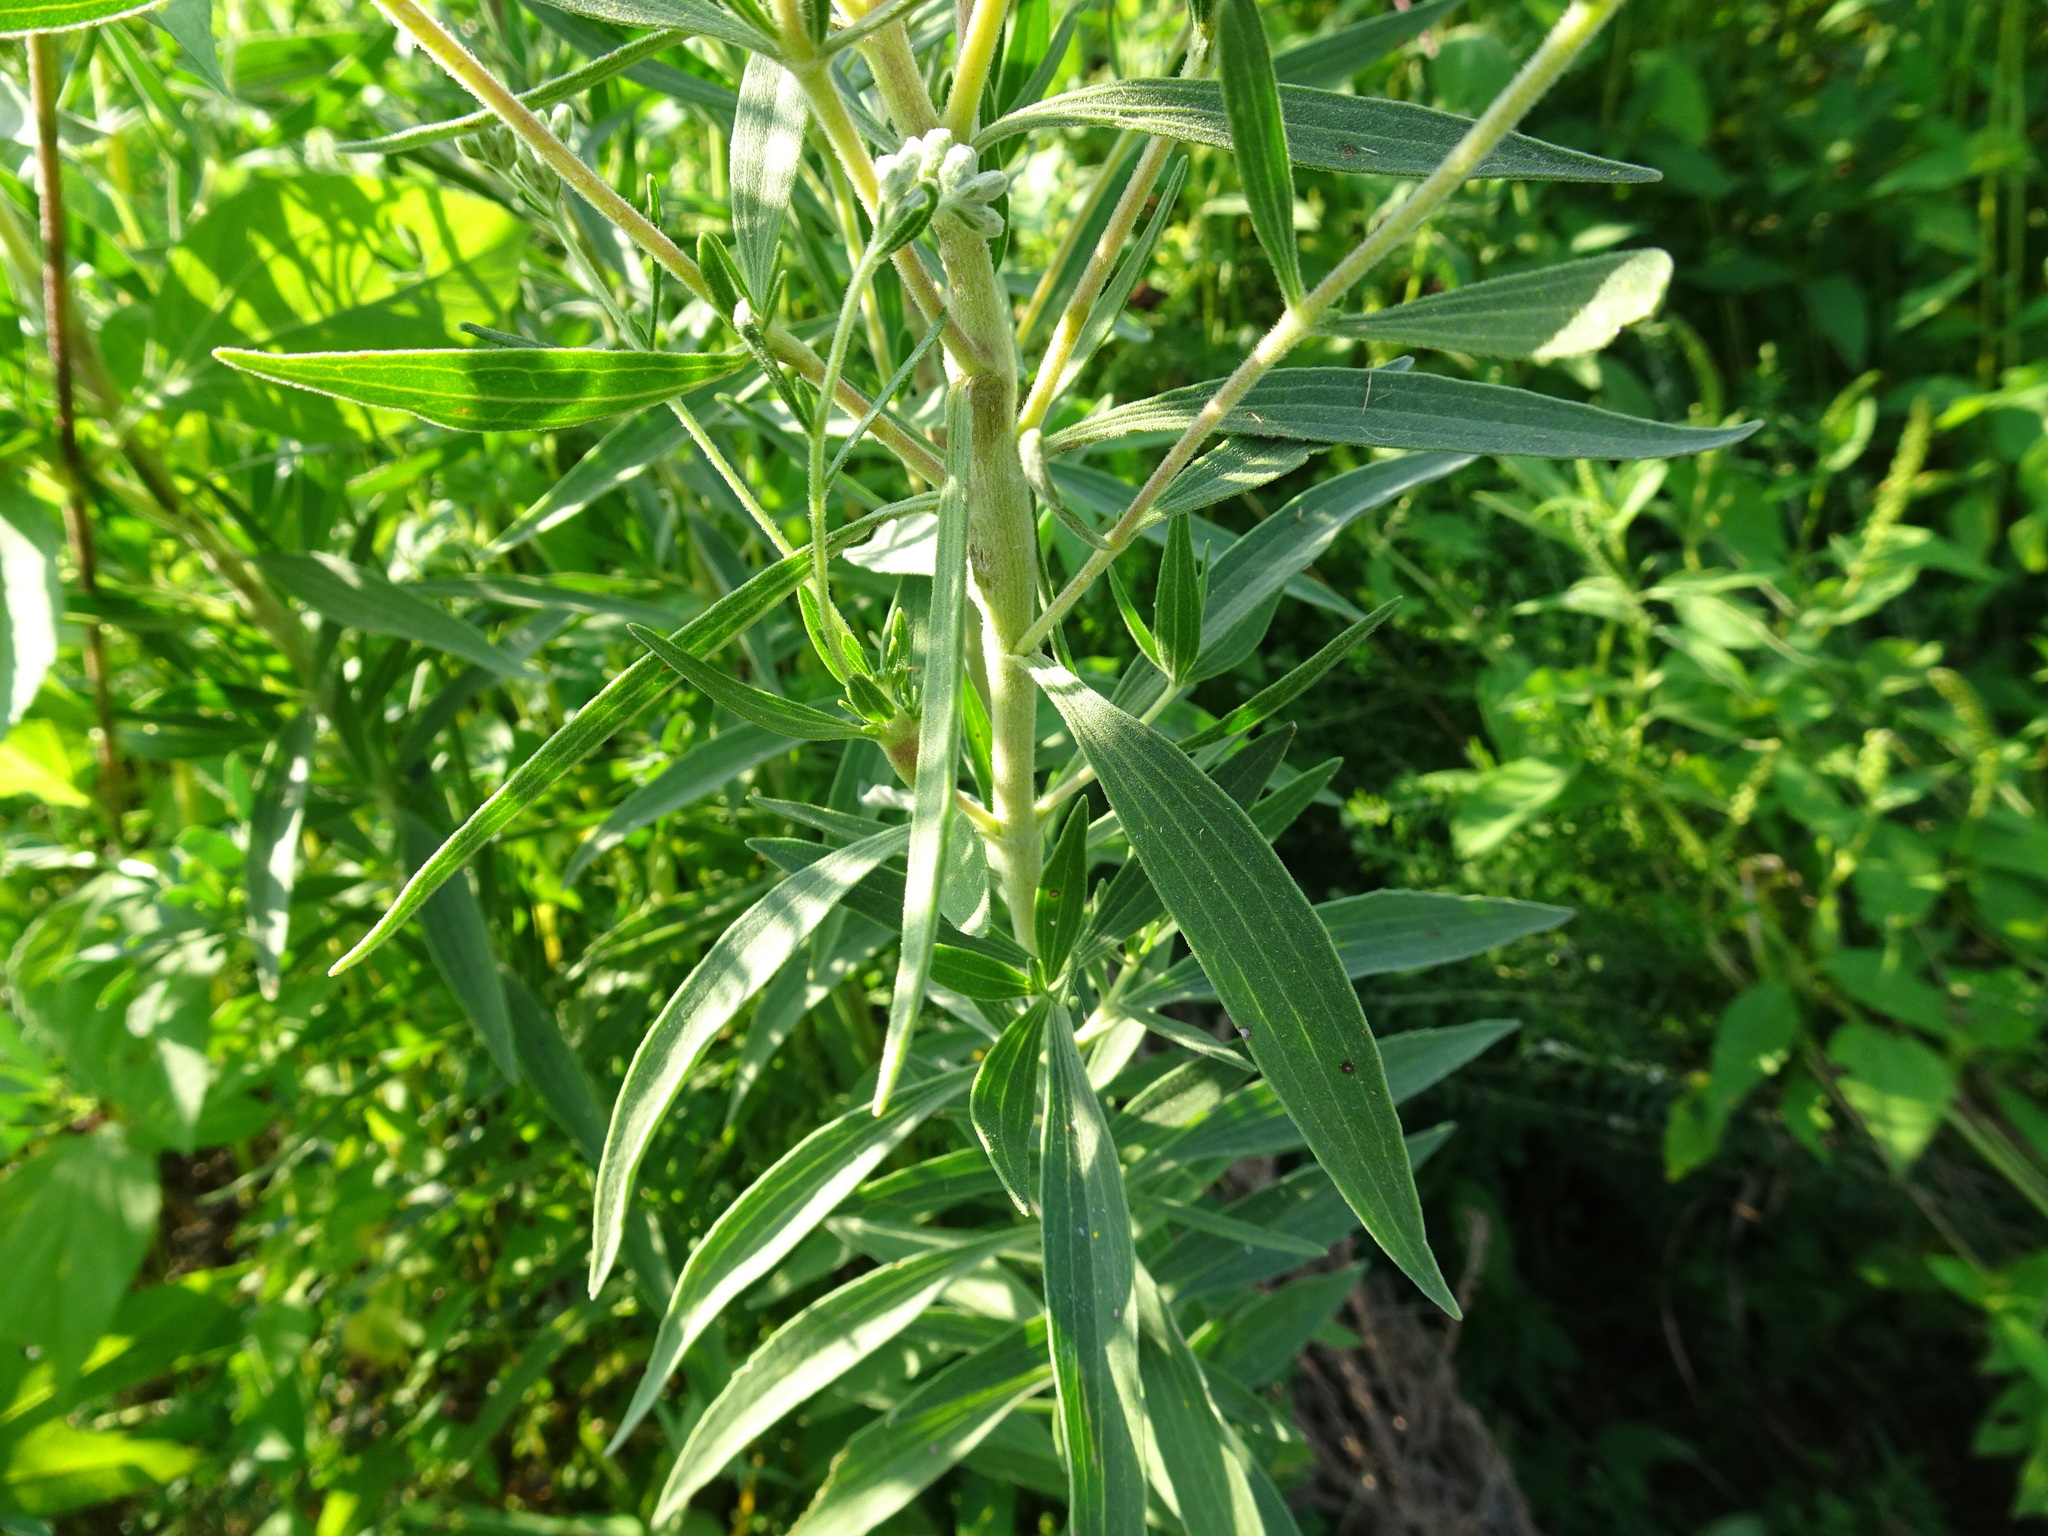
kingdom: Plantae
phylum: Tracheophyta
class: Magnoliopsida
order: Asterales
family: Asteraceae
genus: Eupatorium
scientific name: Eupatorium altissimum
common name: Tall thoroughwort
